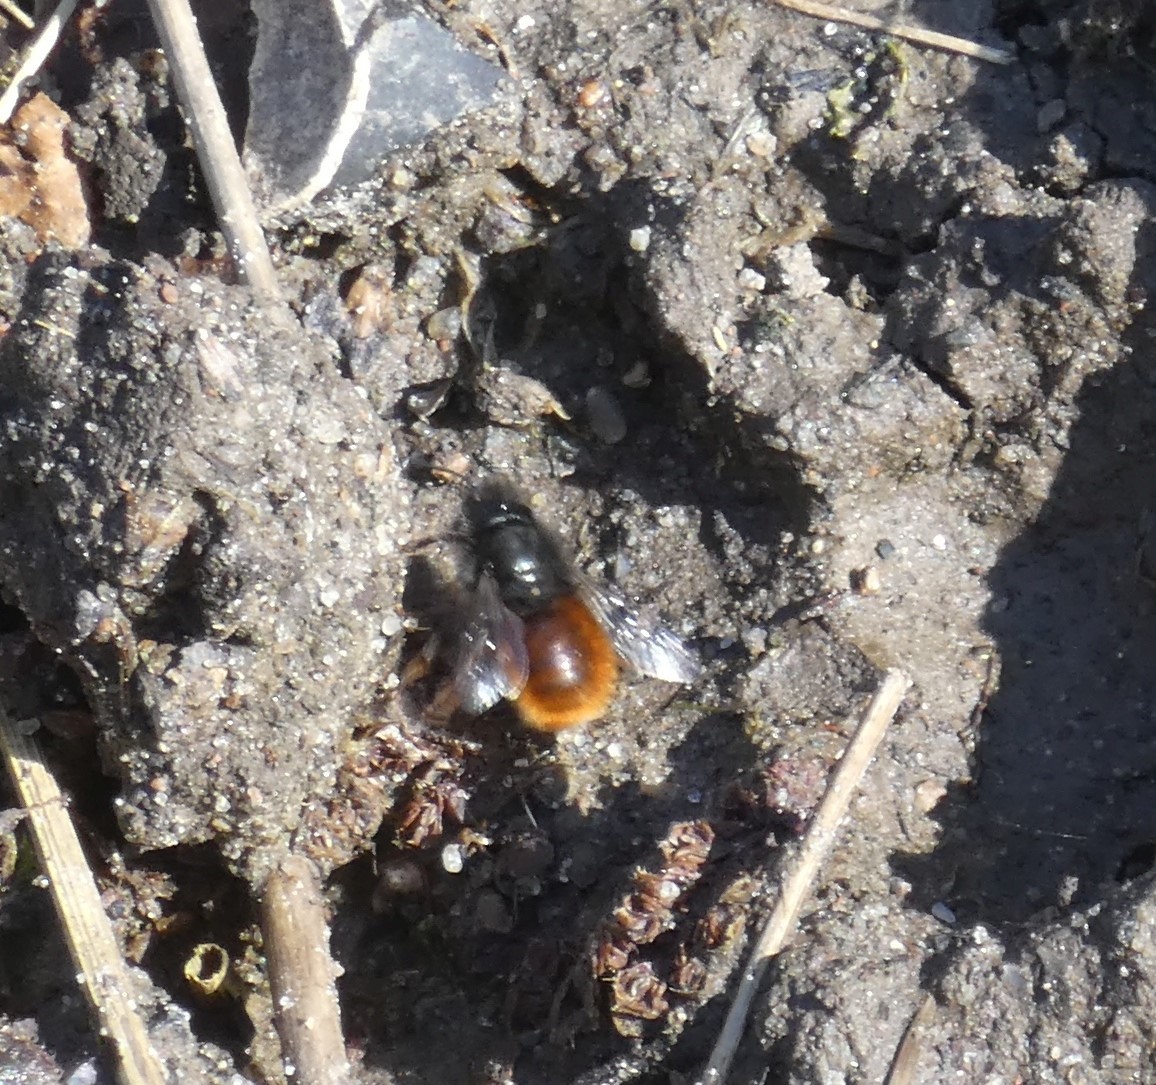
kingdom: Animalia
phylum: Arthropoda
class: Insecta
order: Hymenoptera
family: Megachilidae
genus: Osmia
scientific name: Osmia cornuta
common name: Mason bee
